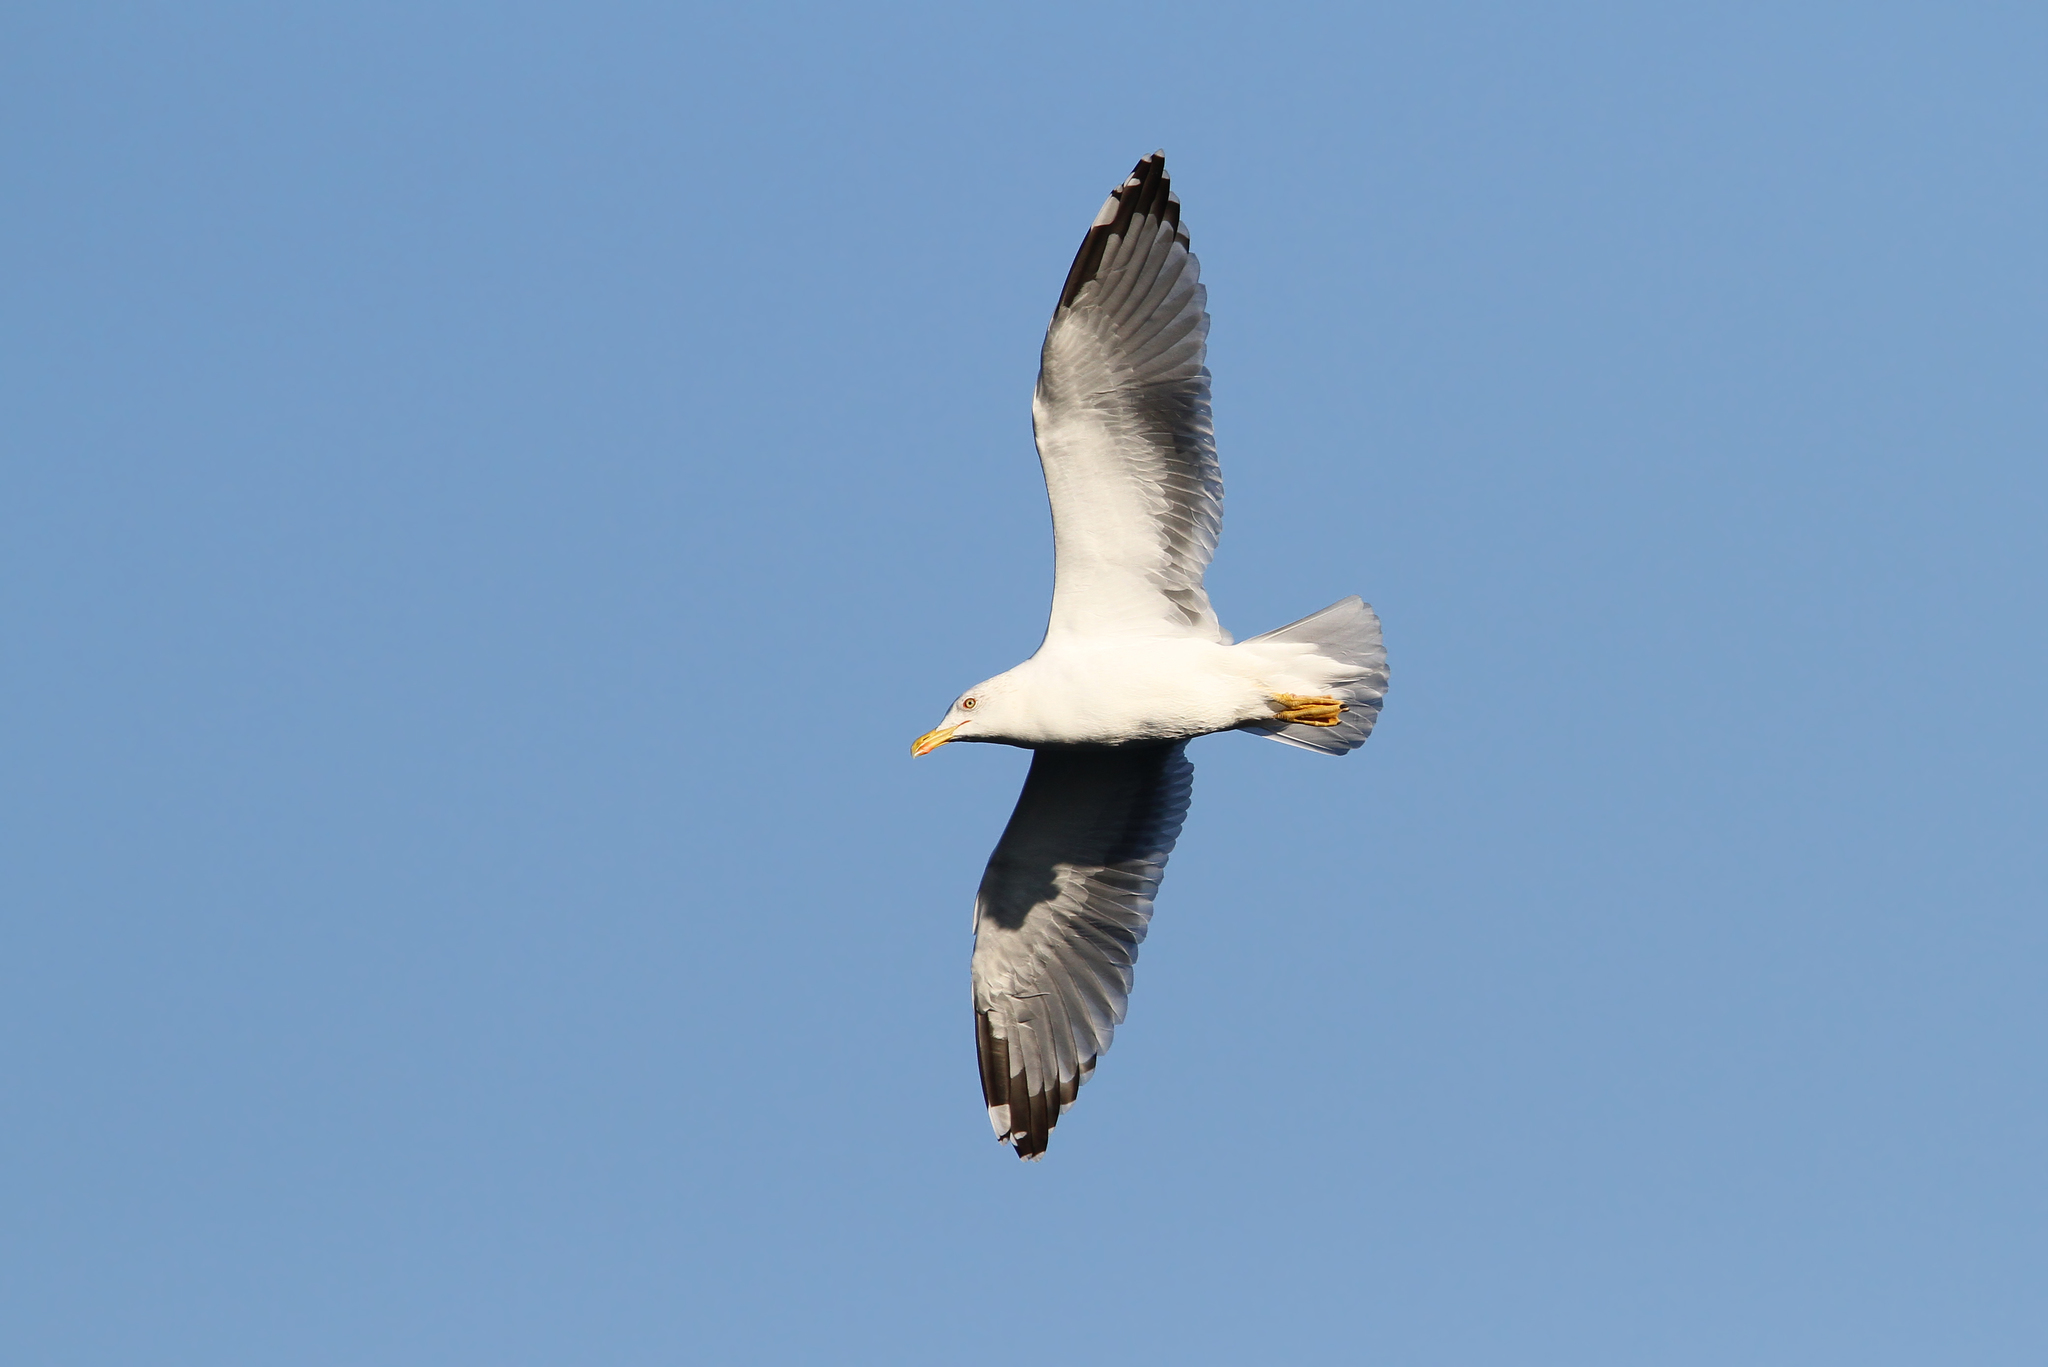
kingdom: Animalia
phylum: Chordata
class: Aves
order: Charadriiformes
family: Laridae
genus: Larus
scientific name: Larus michahellis
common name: Yellow-legged gull
